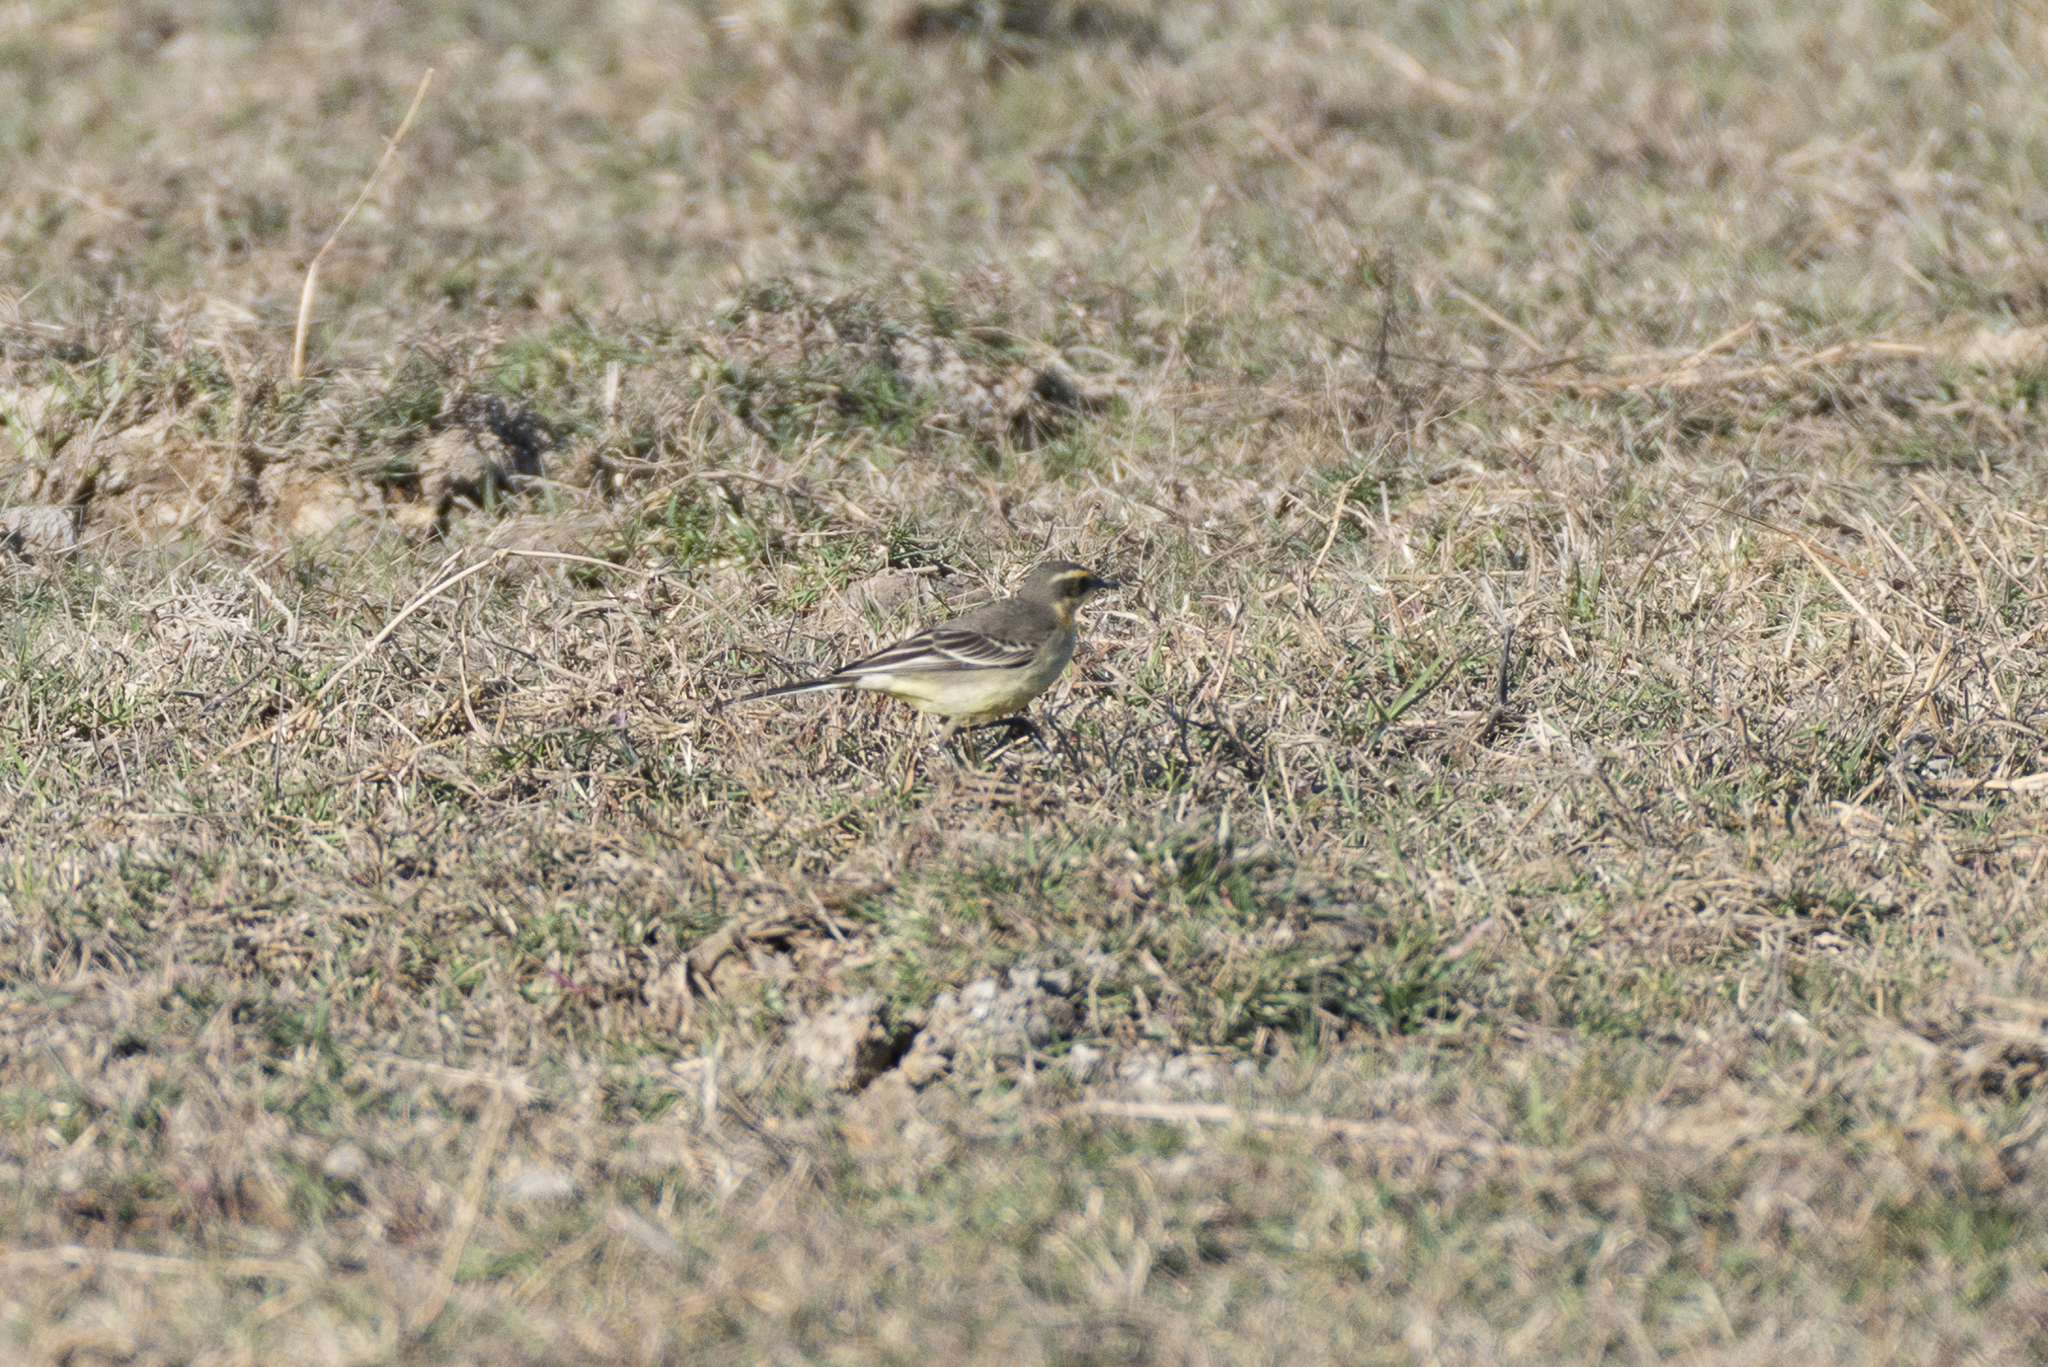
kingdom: Animalia
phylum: Chordata
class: Aves
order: Passeriformes
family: Motacillidae
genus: Motacilla
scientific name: Motacilla tschutschensis
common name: Eastern yellow wagtail
